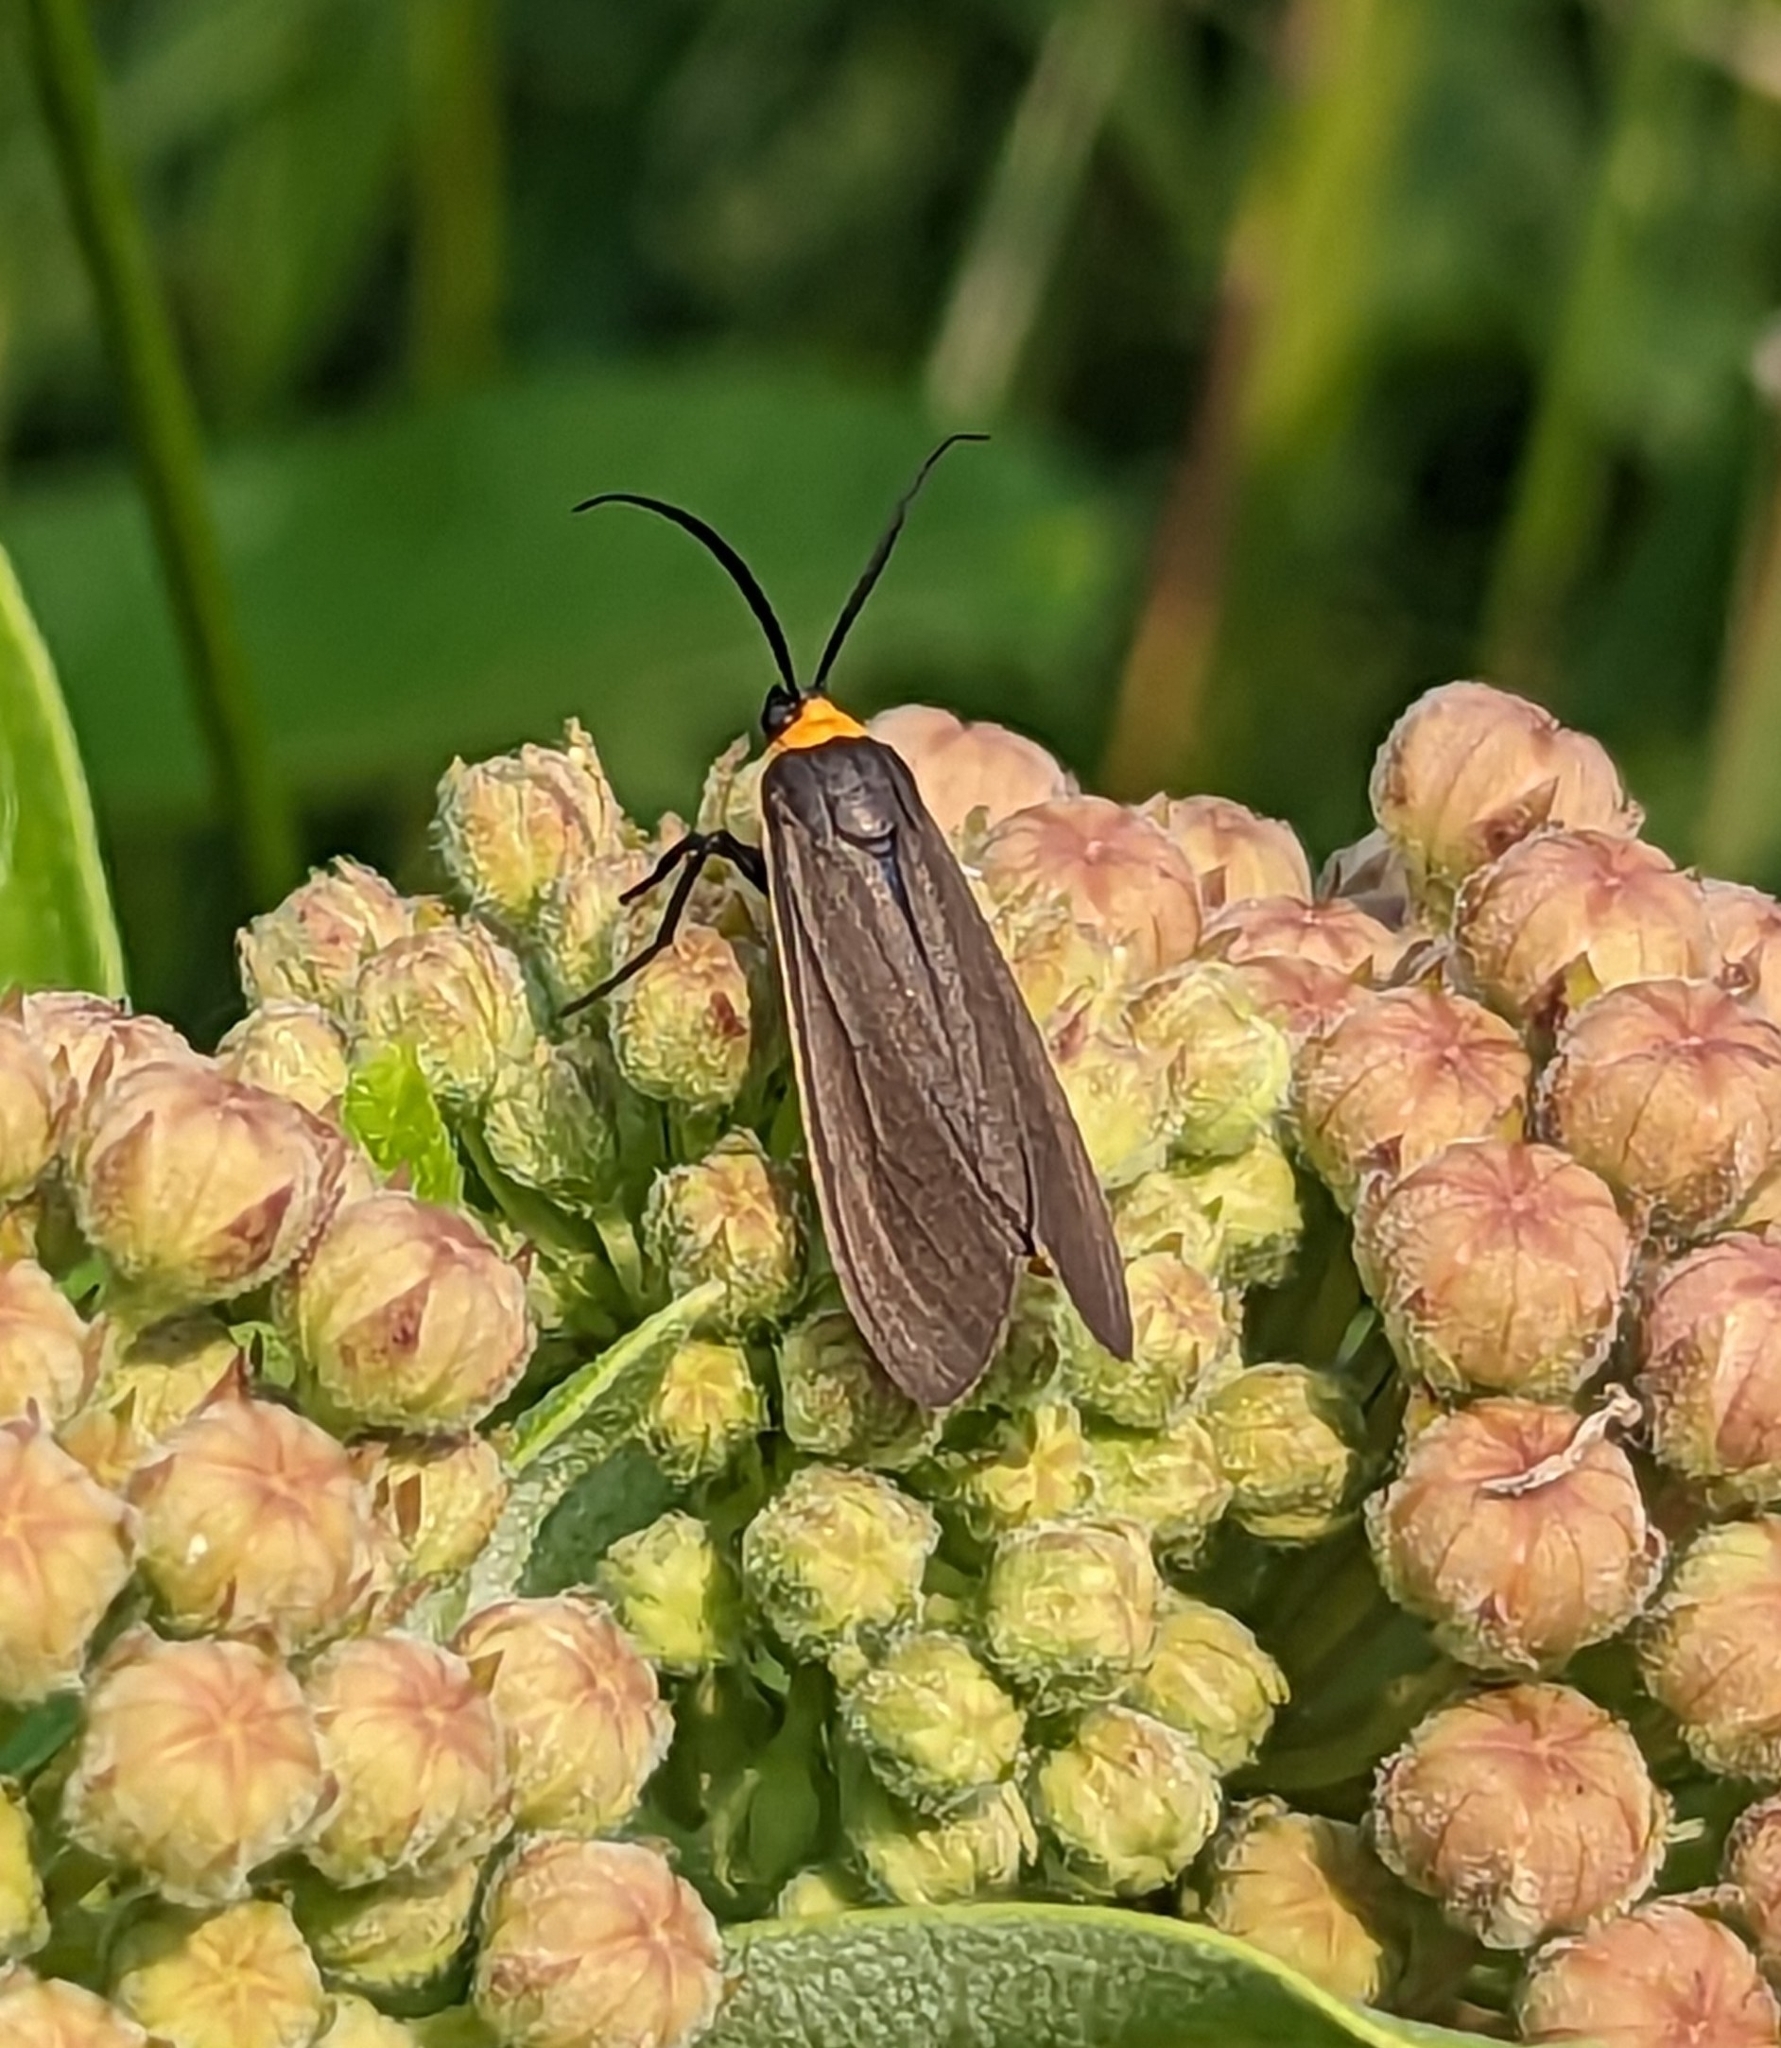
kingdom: Animalia
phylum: Arthropoda
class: Insecta
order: Lepidoptera
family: Erebidae
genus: Cisseps
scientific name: Cisseps fulvicollis
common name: Yellow-collared scape moth
